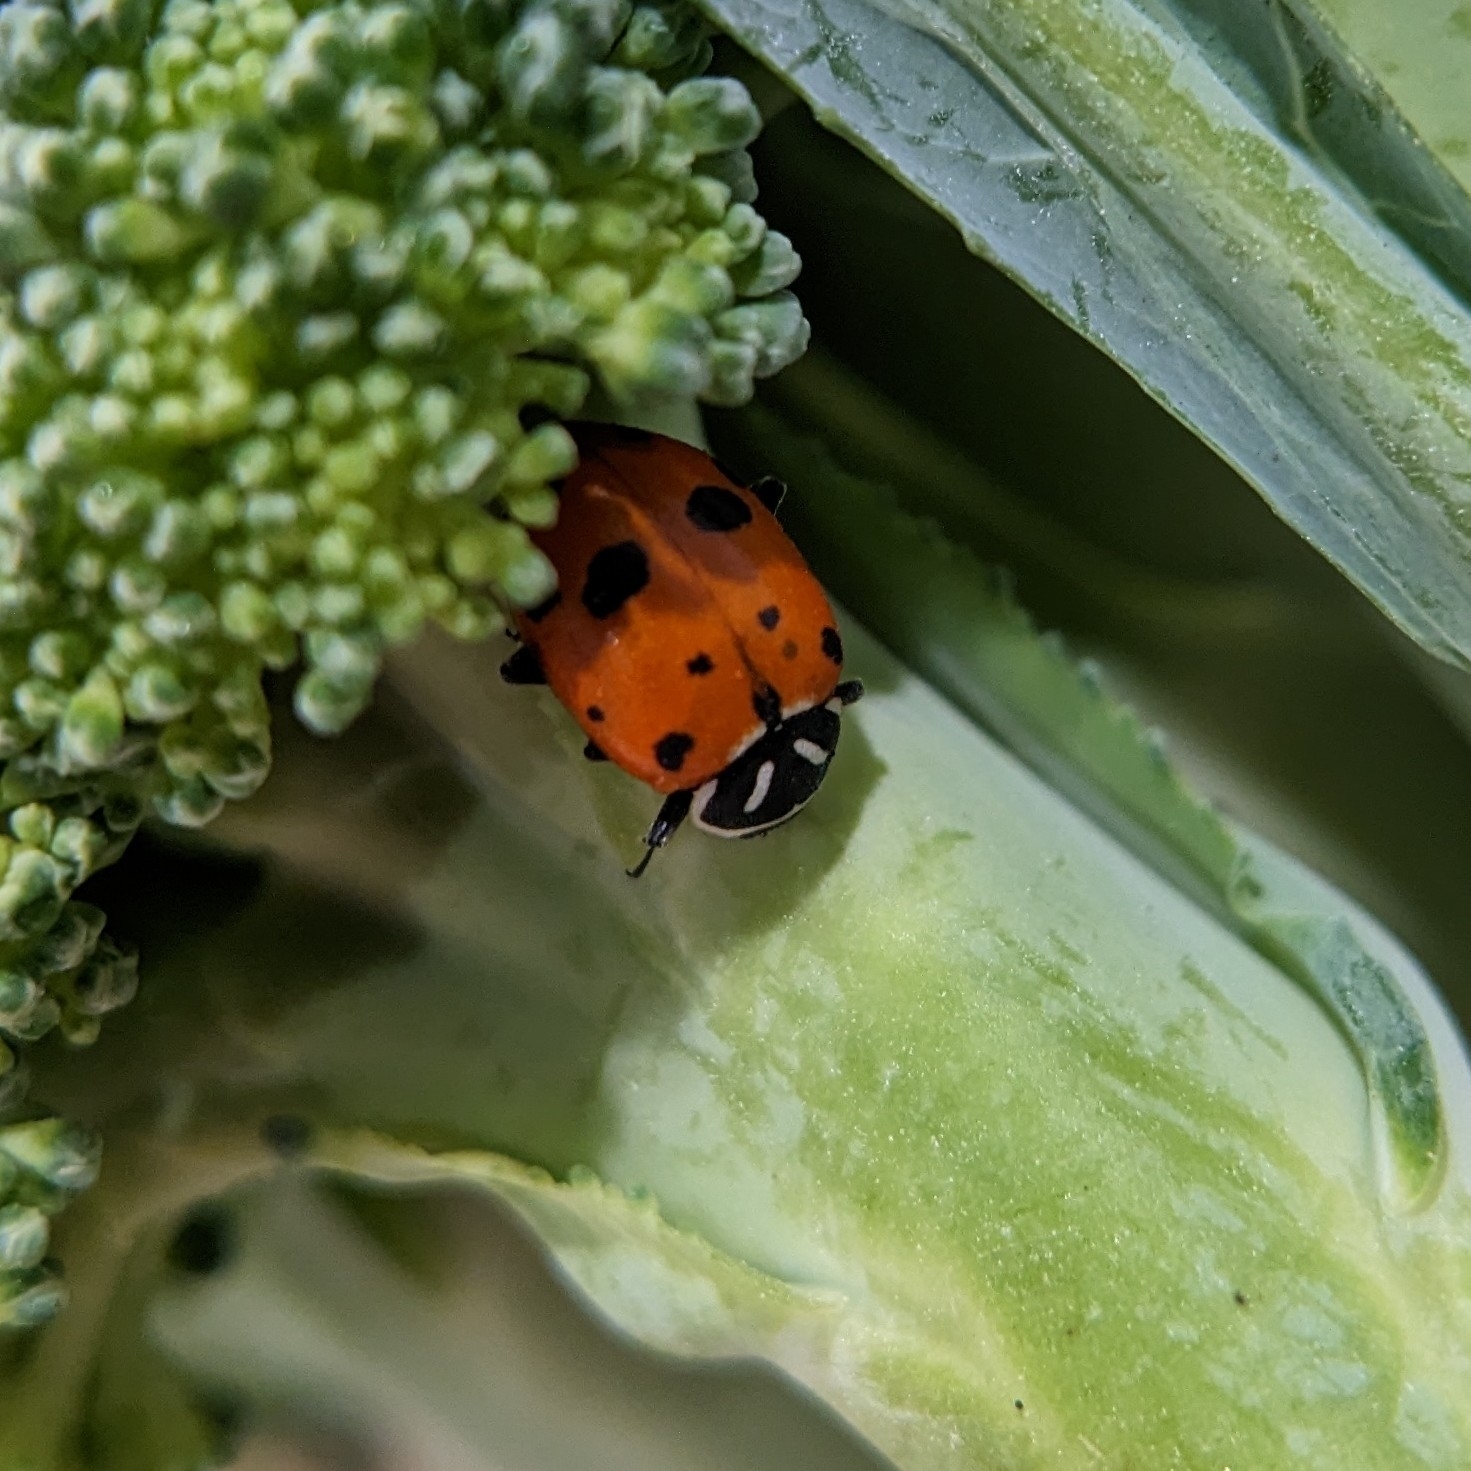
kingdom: Animalia
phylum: Arthropoda
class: Insecta
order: Coleoptera
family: Coccinellidae
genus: Hippodamia
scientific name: Hippodamia convergens
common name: Convergent lady beetle
